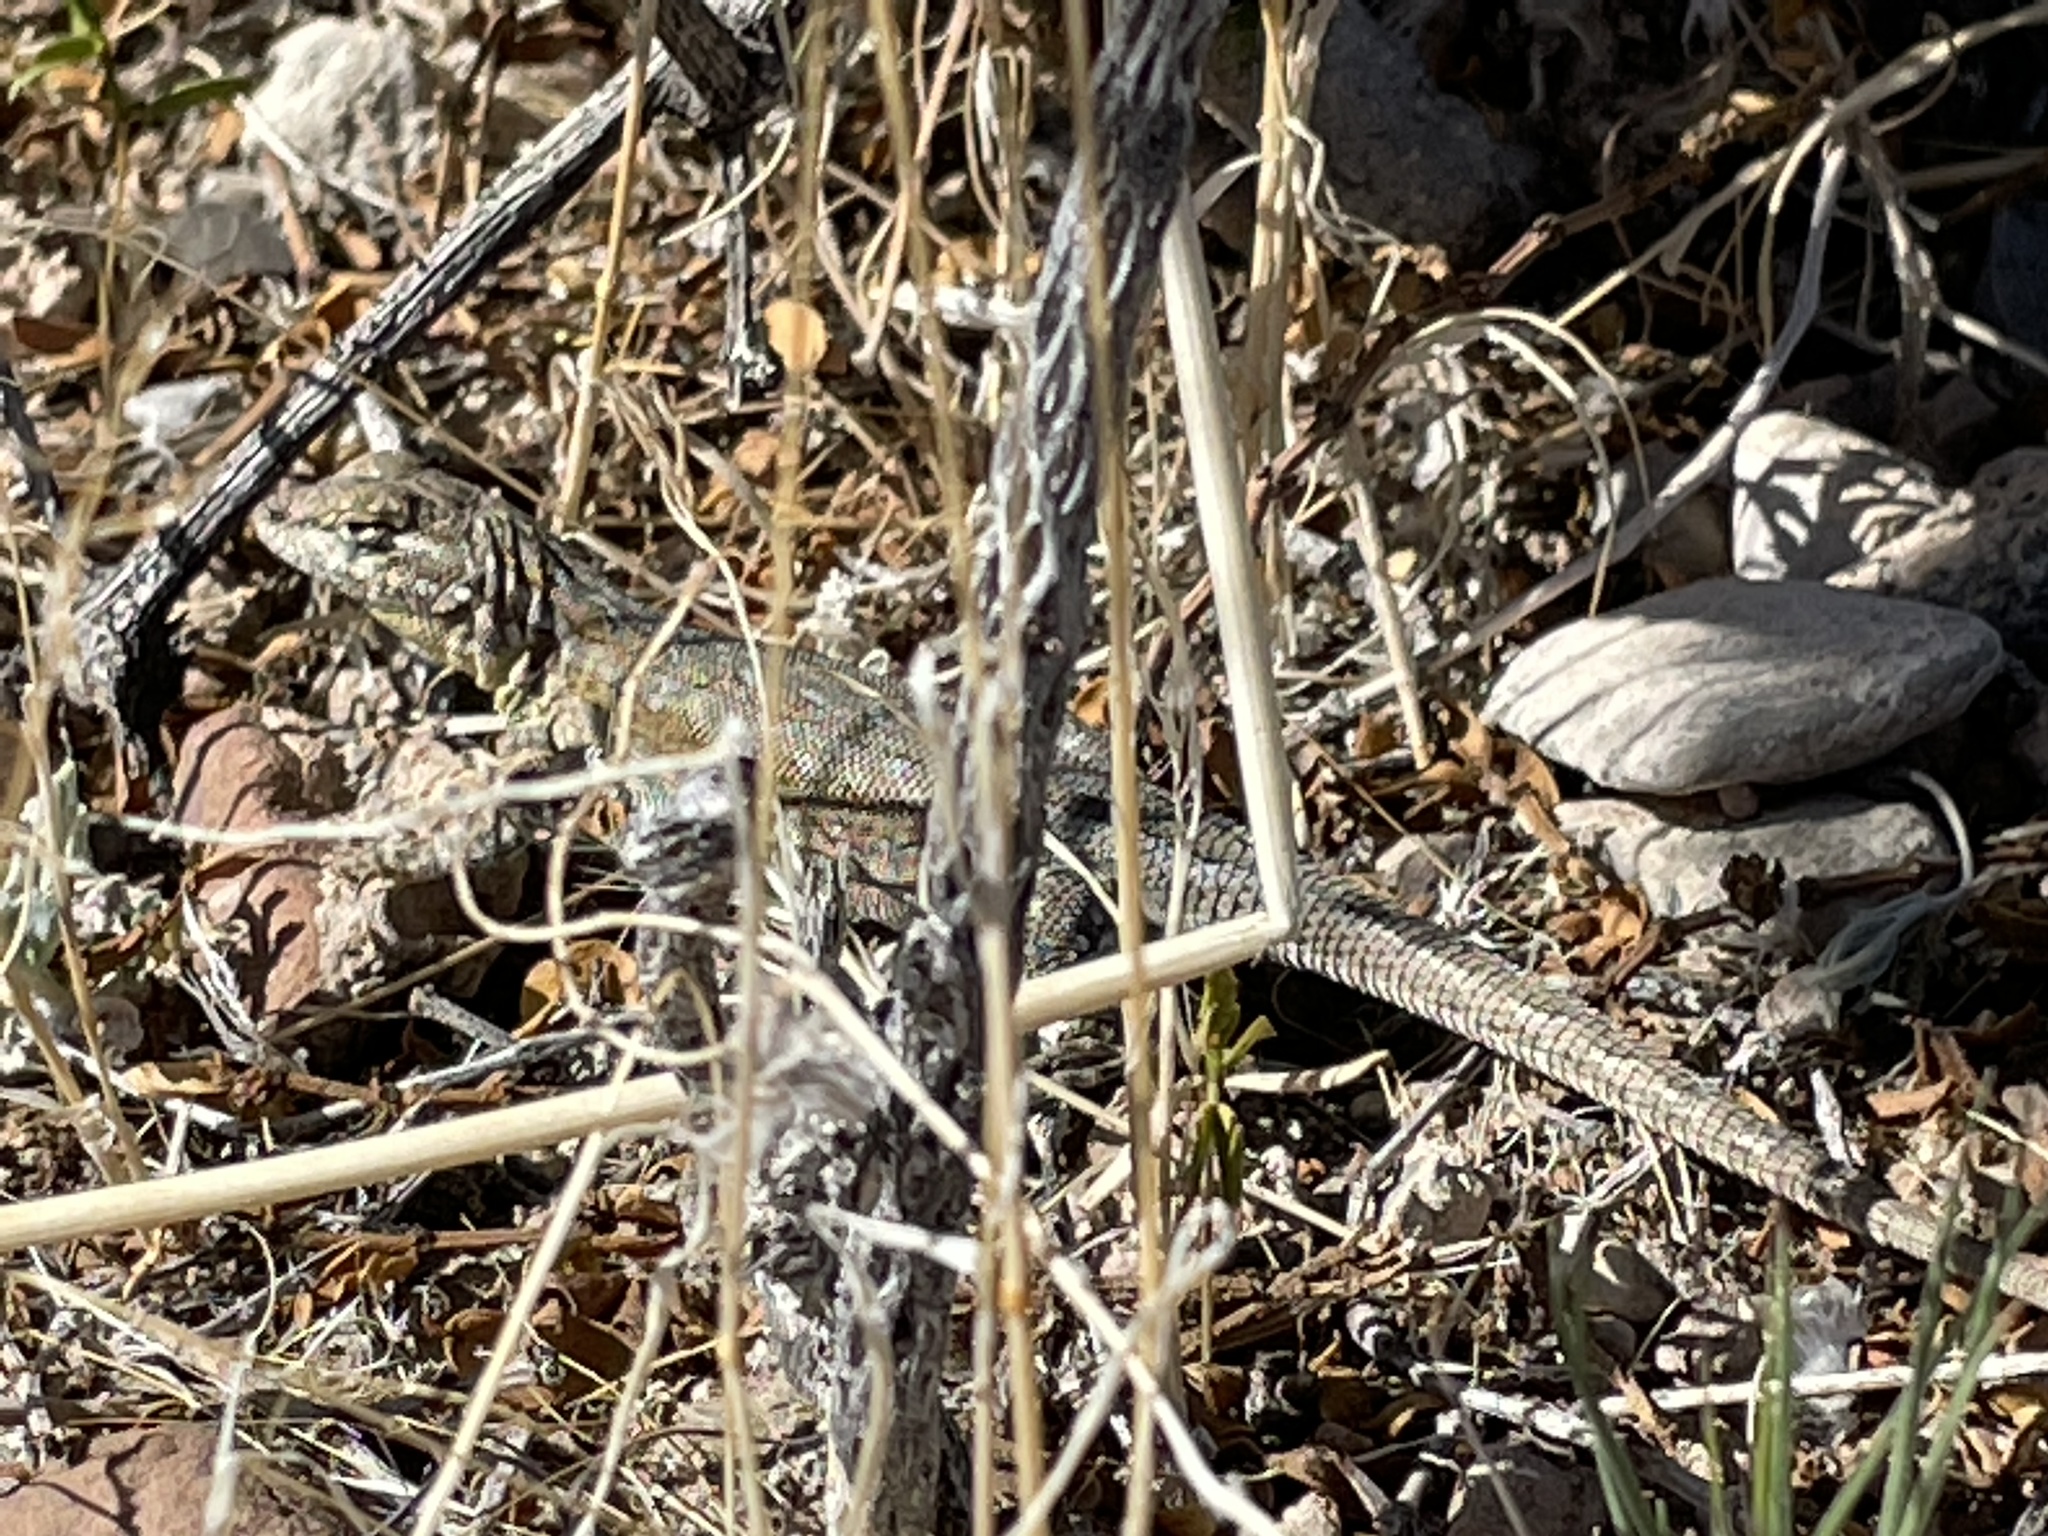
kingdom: Animalia
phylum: Chordata
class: Squamata
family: Phrynosomatidae
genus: Uta
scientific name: Uta stansburiana
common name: Side-blotched lizard
